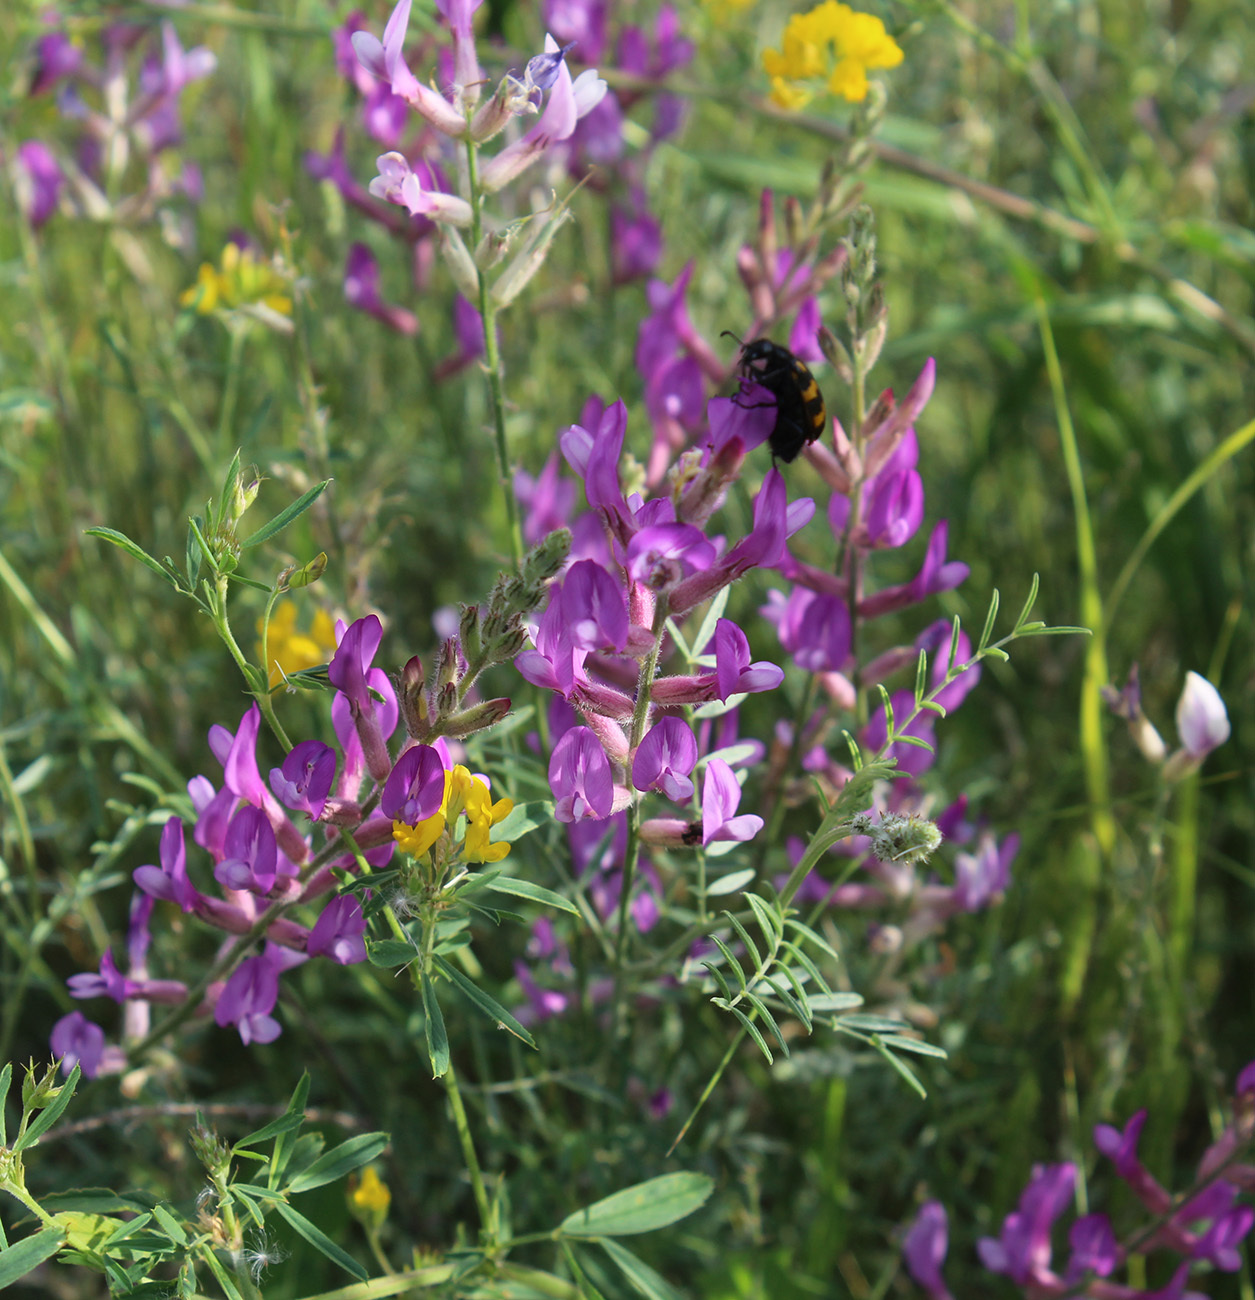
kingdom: Plantae
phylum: Tracheophyta
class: Magnoliopsida
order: Fabales
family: Fabaceae
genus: Astragalus
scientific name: Astragalus varius
